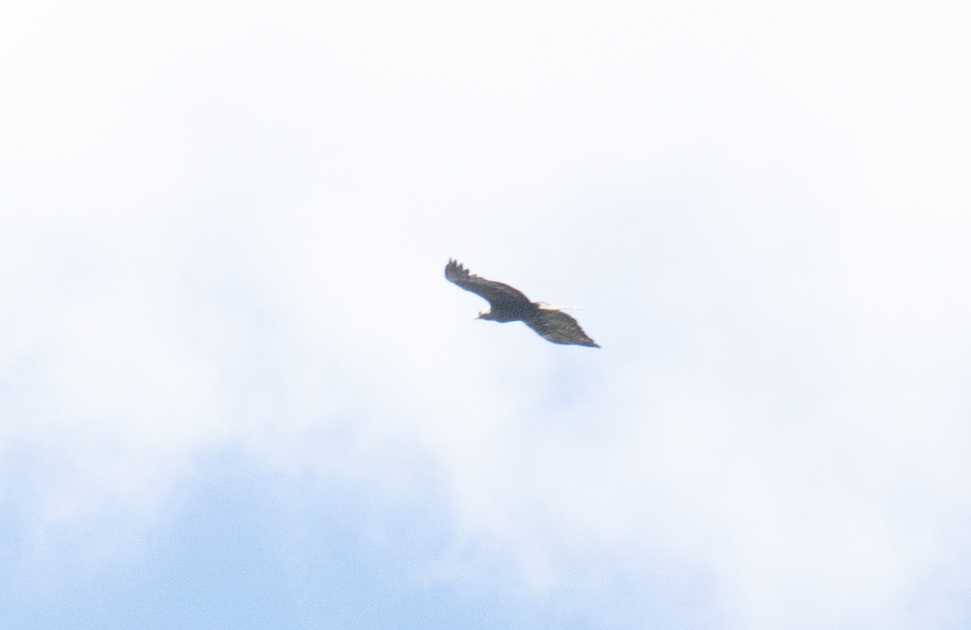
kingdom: Animalia
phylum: Chordata
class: Aves
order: Accipitriformes
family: Accipitridae
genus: Aquila
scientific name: Aquila chrysaetos
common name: Golden eagle
